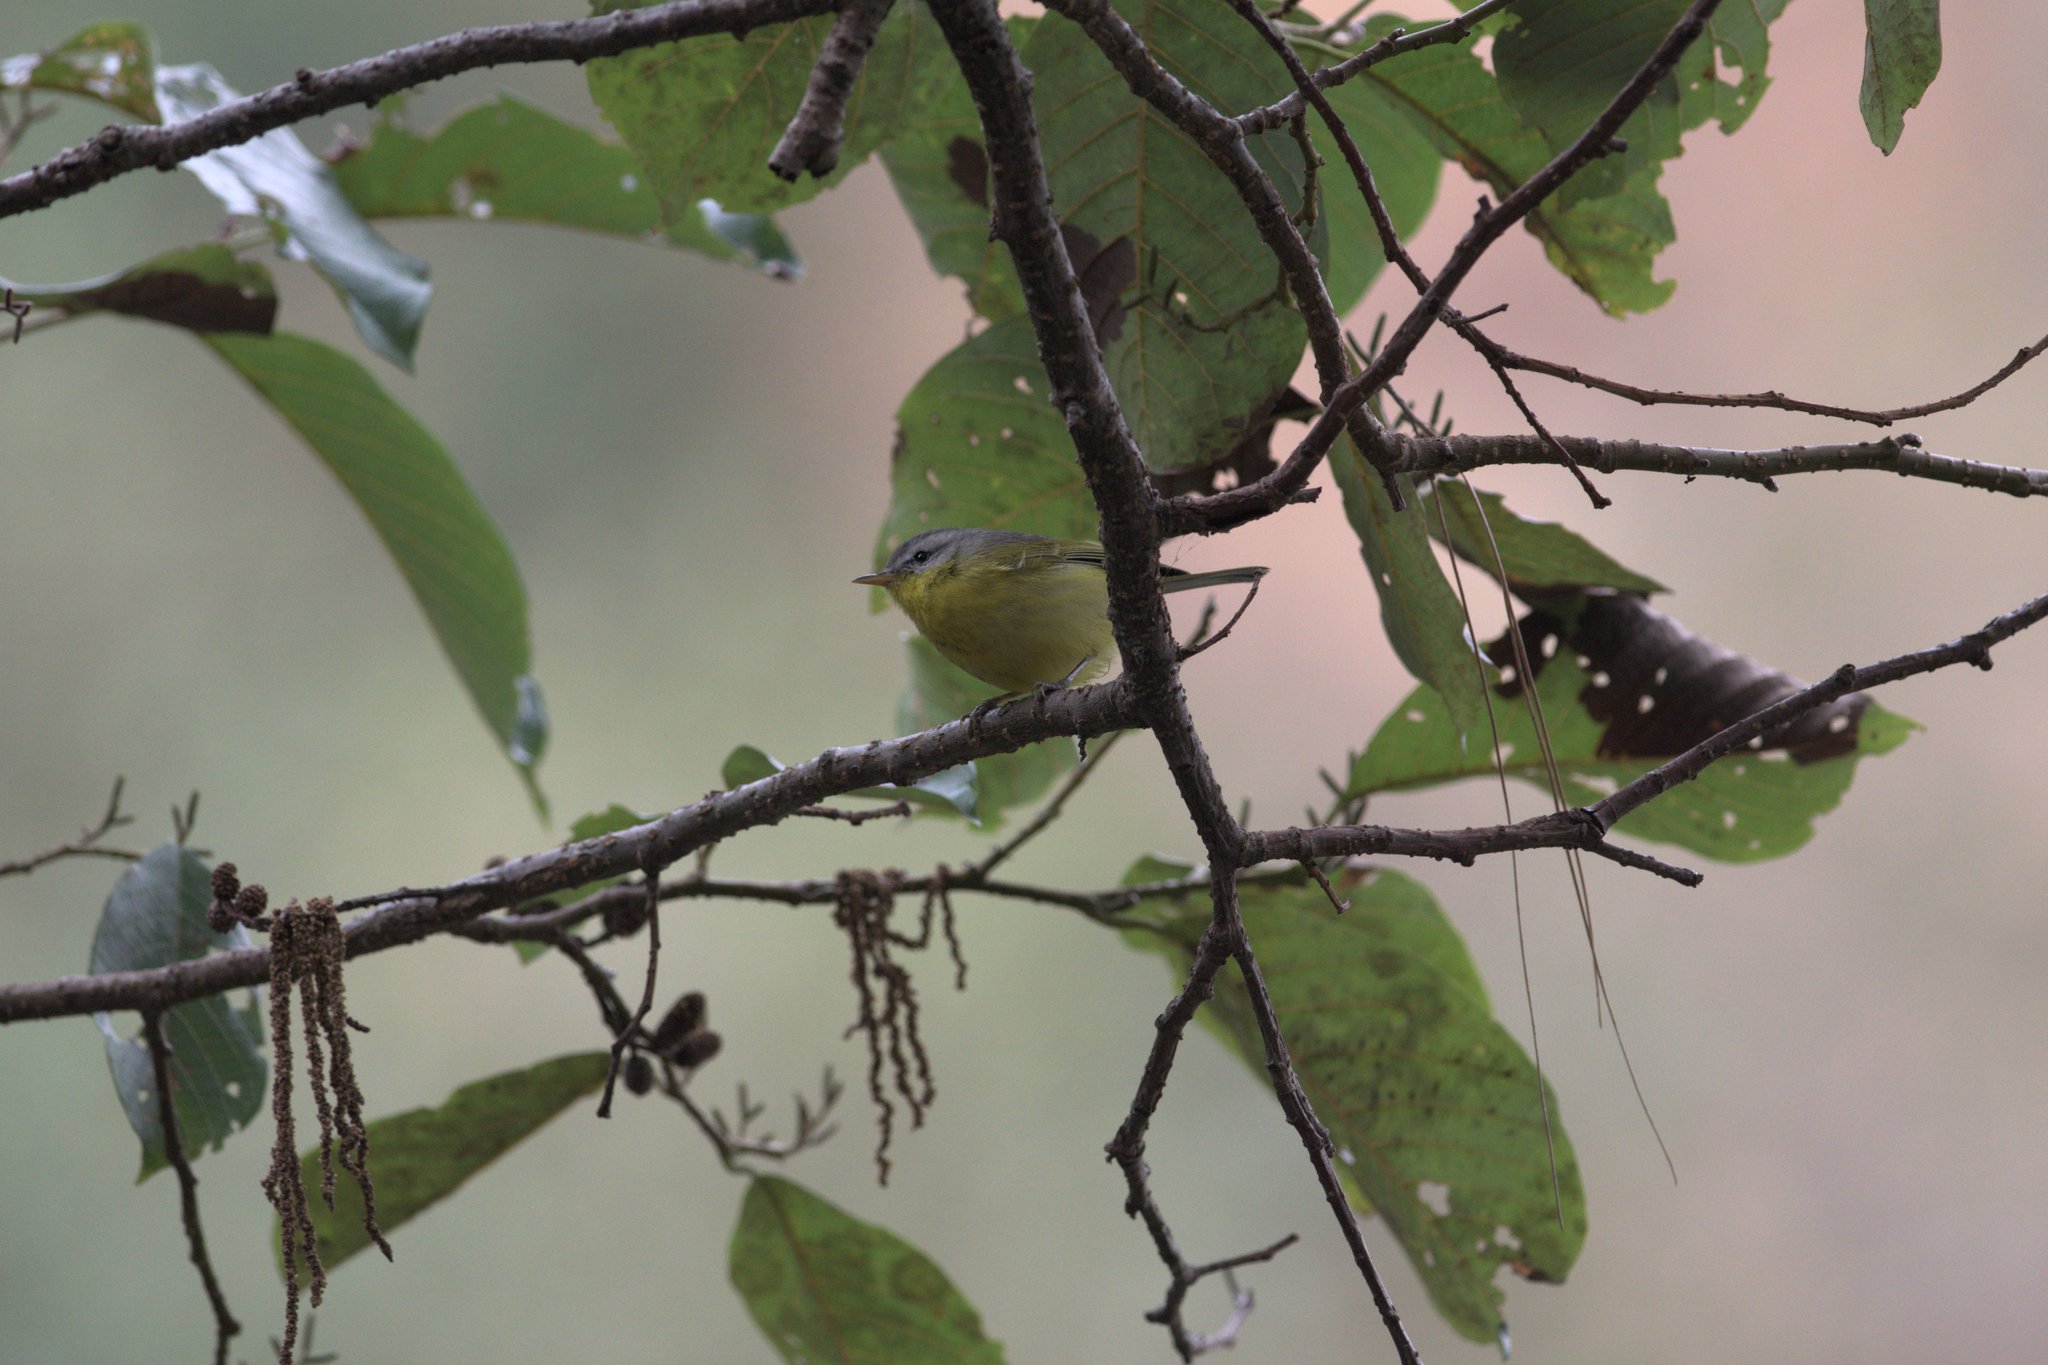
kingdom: Plantae
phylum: Tracheophyta
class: Magnoliopsida
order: Fagales
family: Betulaceae
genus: Alnus
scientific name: Alnus nepalensis
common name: Nepal alder
